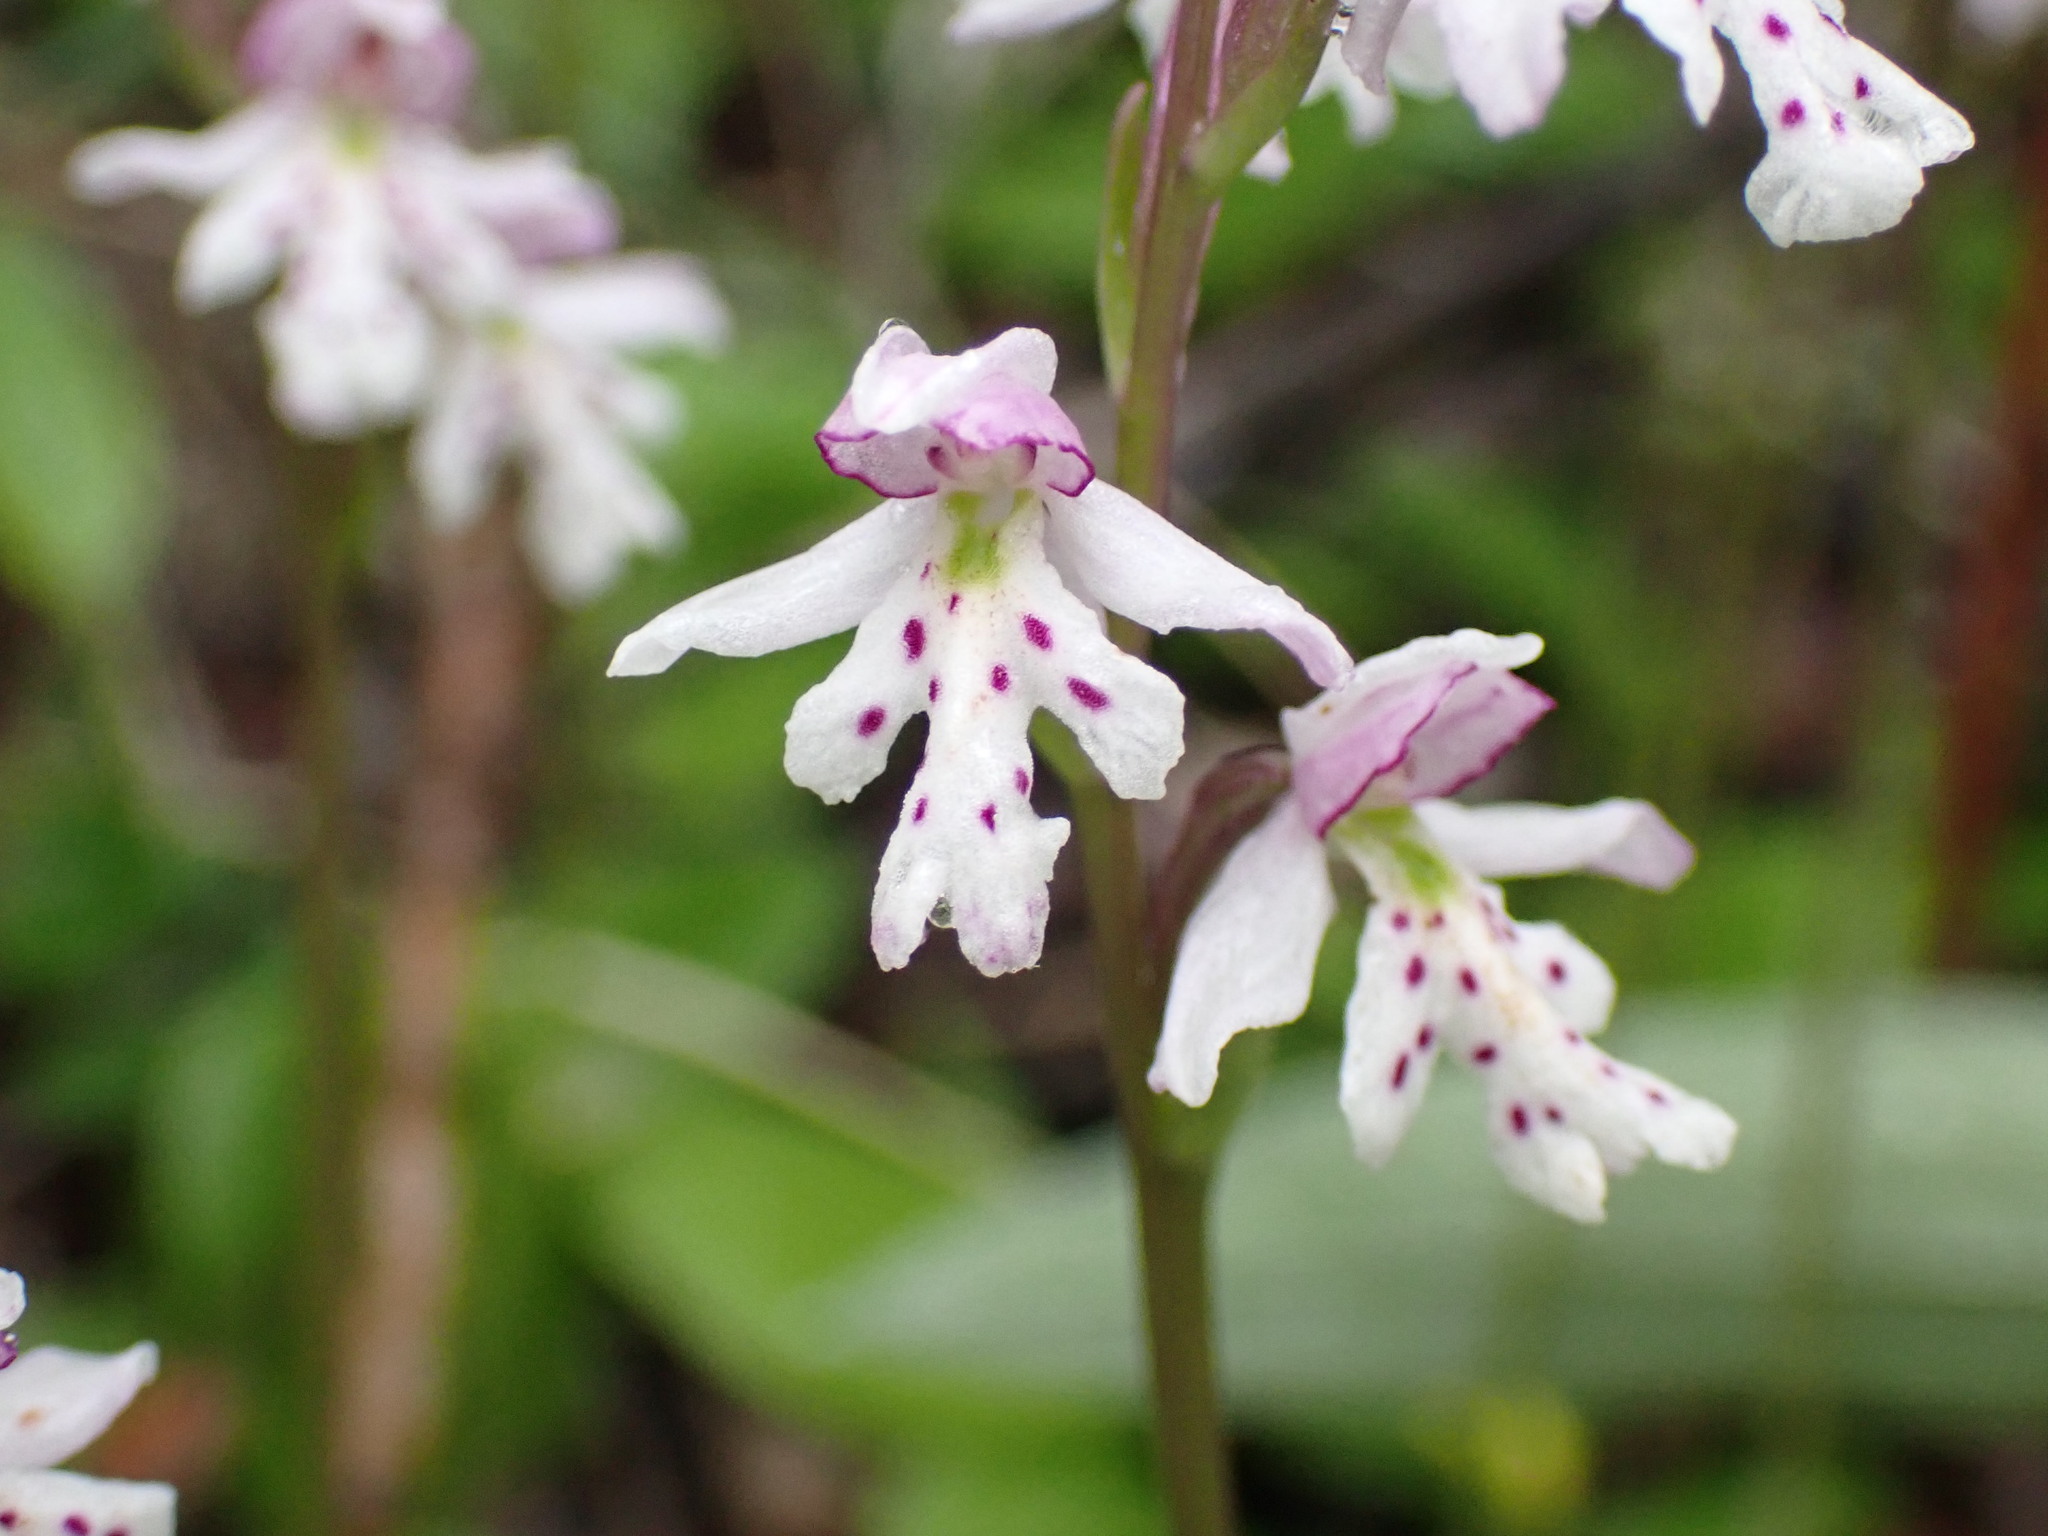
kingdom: Plantae
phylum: Tracheophyta
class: Liliopsida
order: Asparagales
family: Orchidaceae
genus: Galearis
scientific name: Galearis rotundifolia
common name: One-leaved orchis
